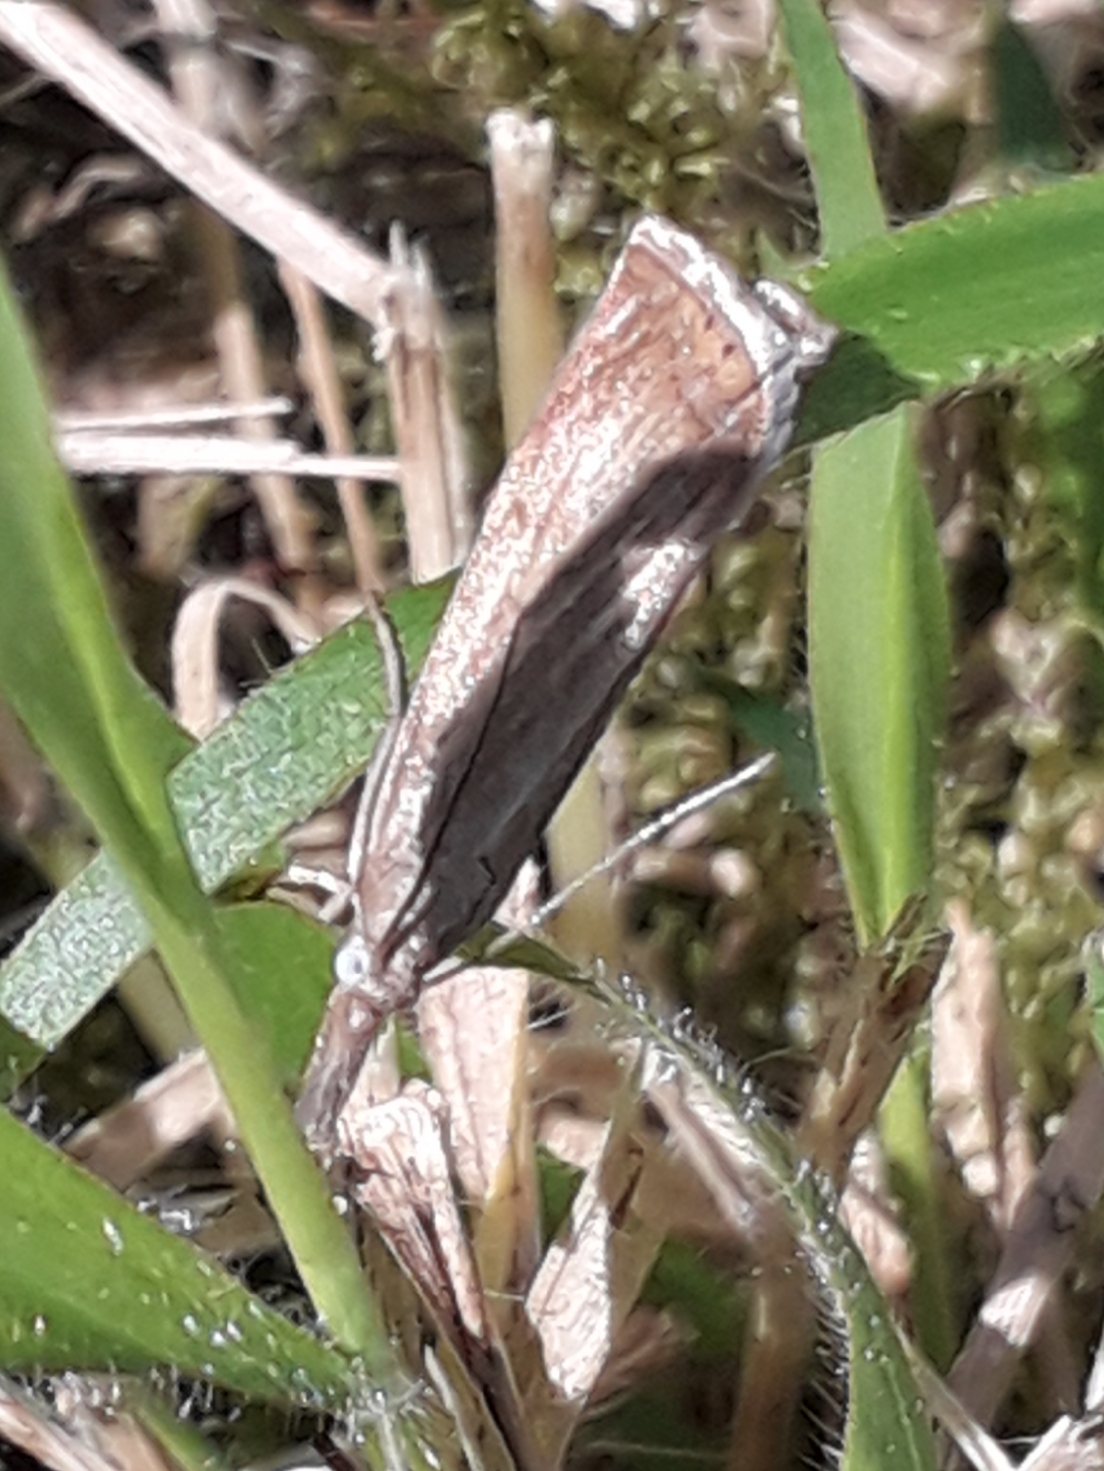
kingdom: Animalia
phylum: Arthropoda
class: Insecta
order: Lepidoptera
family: Crambidae
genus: Chrysoteuchia
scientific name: Chrysoteuchia culmella
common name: Garden grass-veneer
